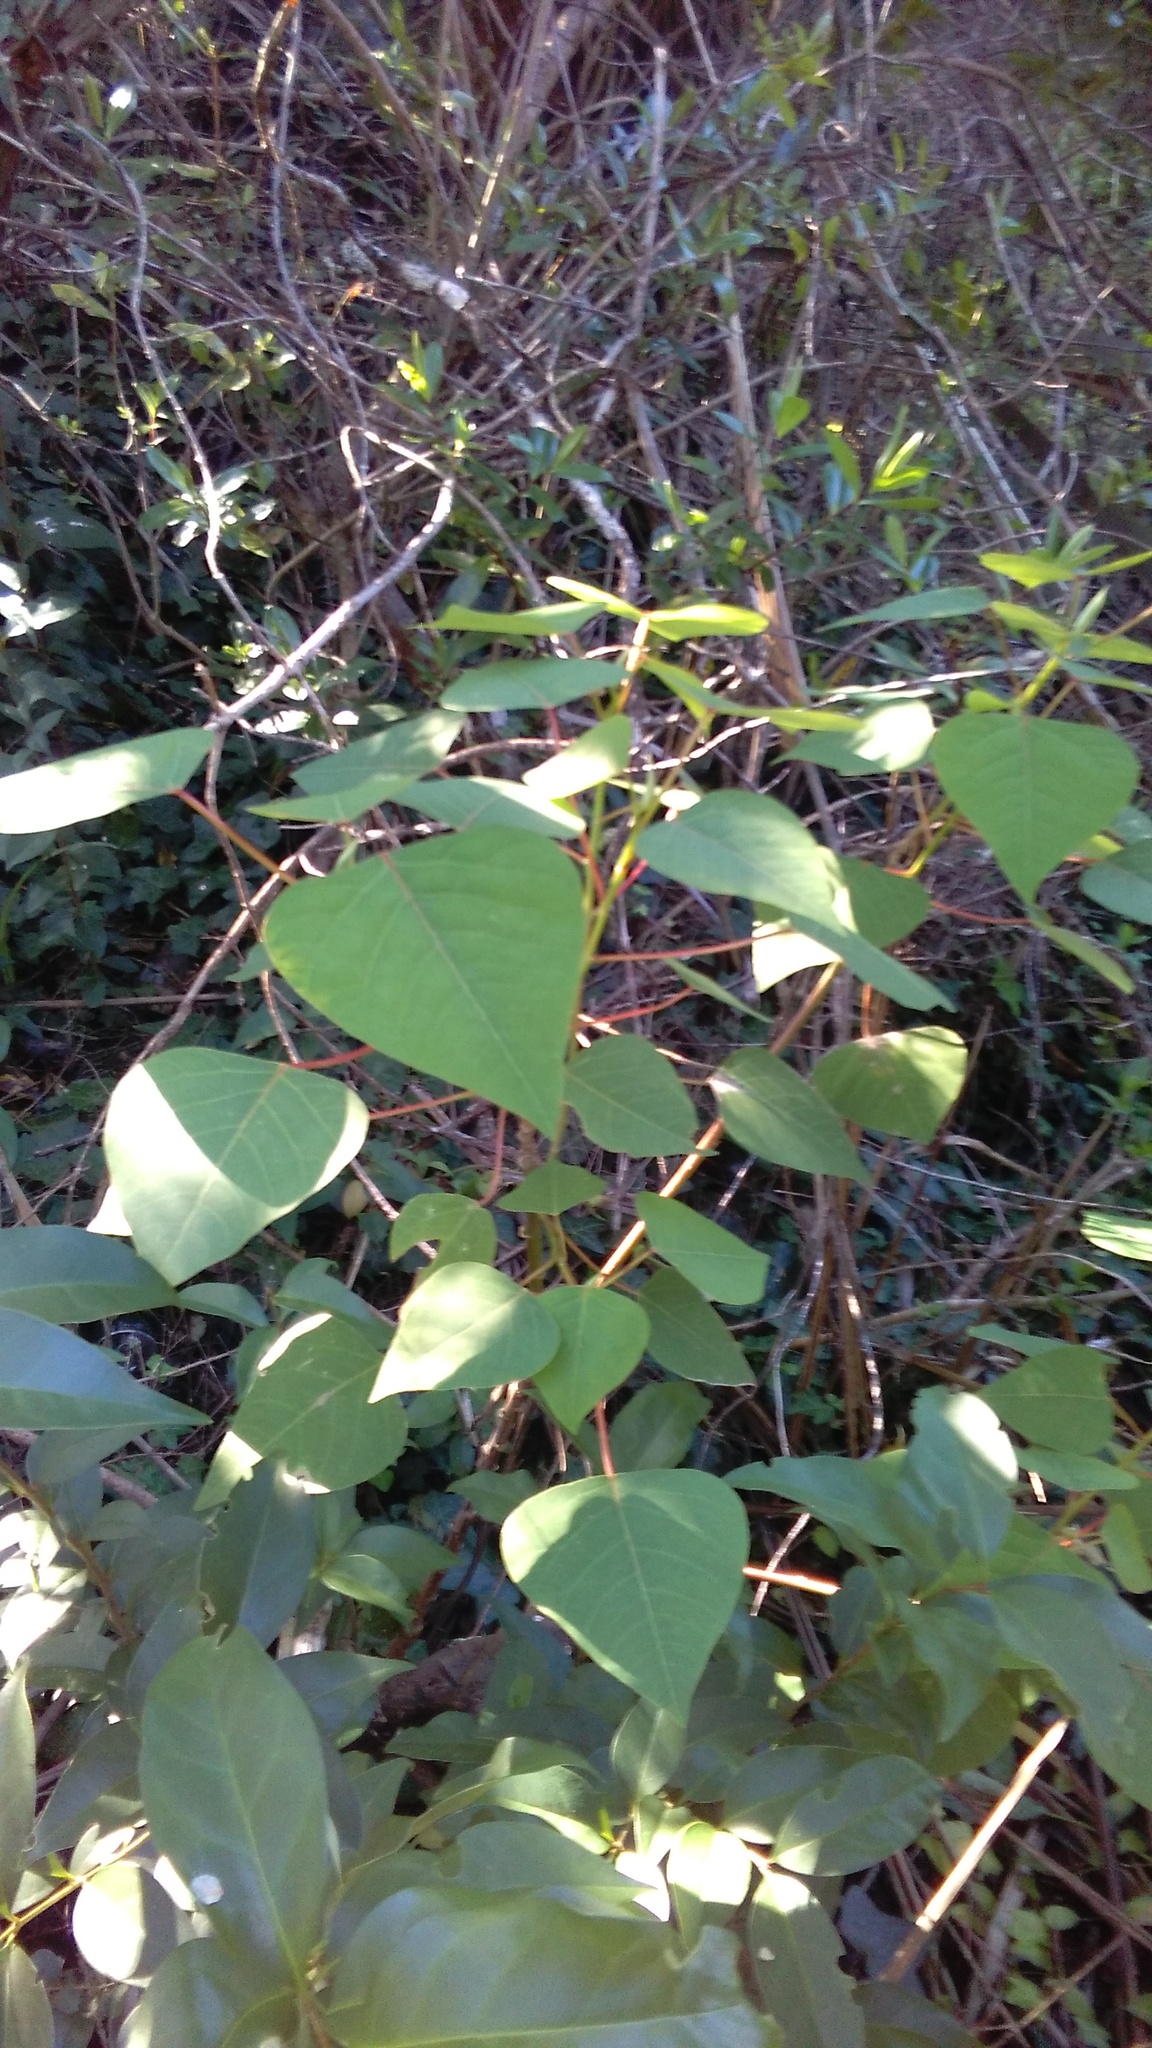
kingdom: Plantae
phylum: Tracheophyta
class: Magnoliopsida
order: Malpighiales
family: Euphorbiaceae
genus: Homalanthus
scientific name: Homalanthus populifolius
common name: Queensland poplar
